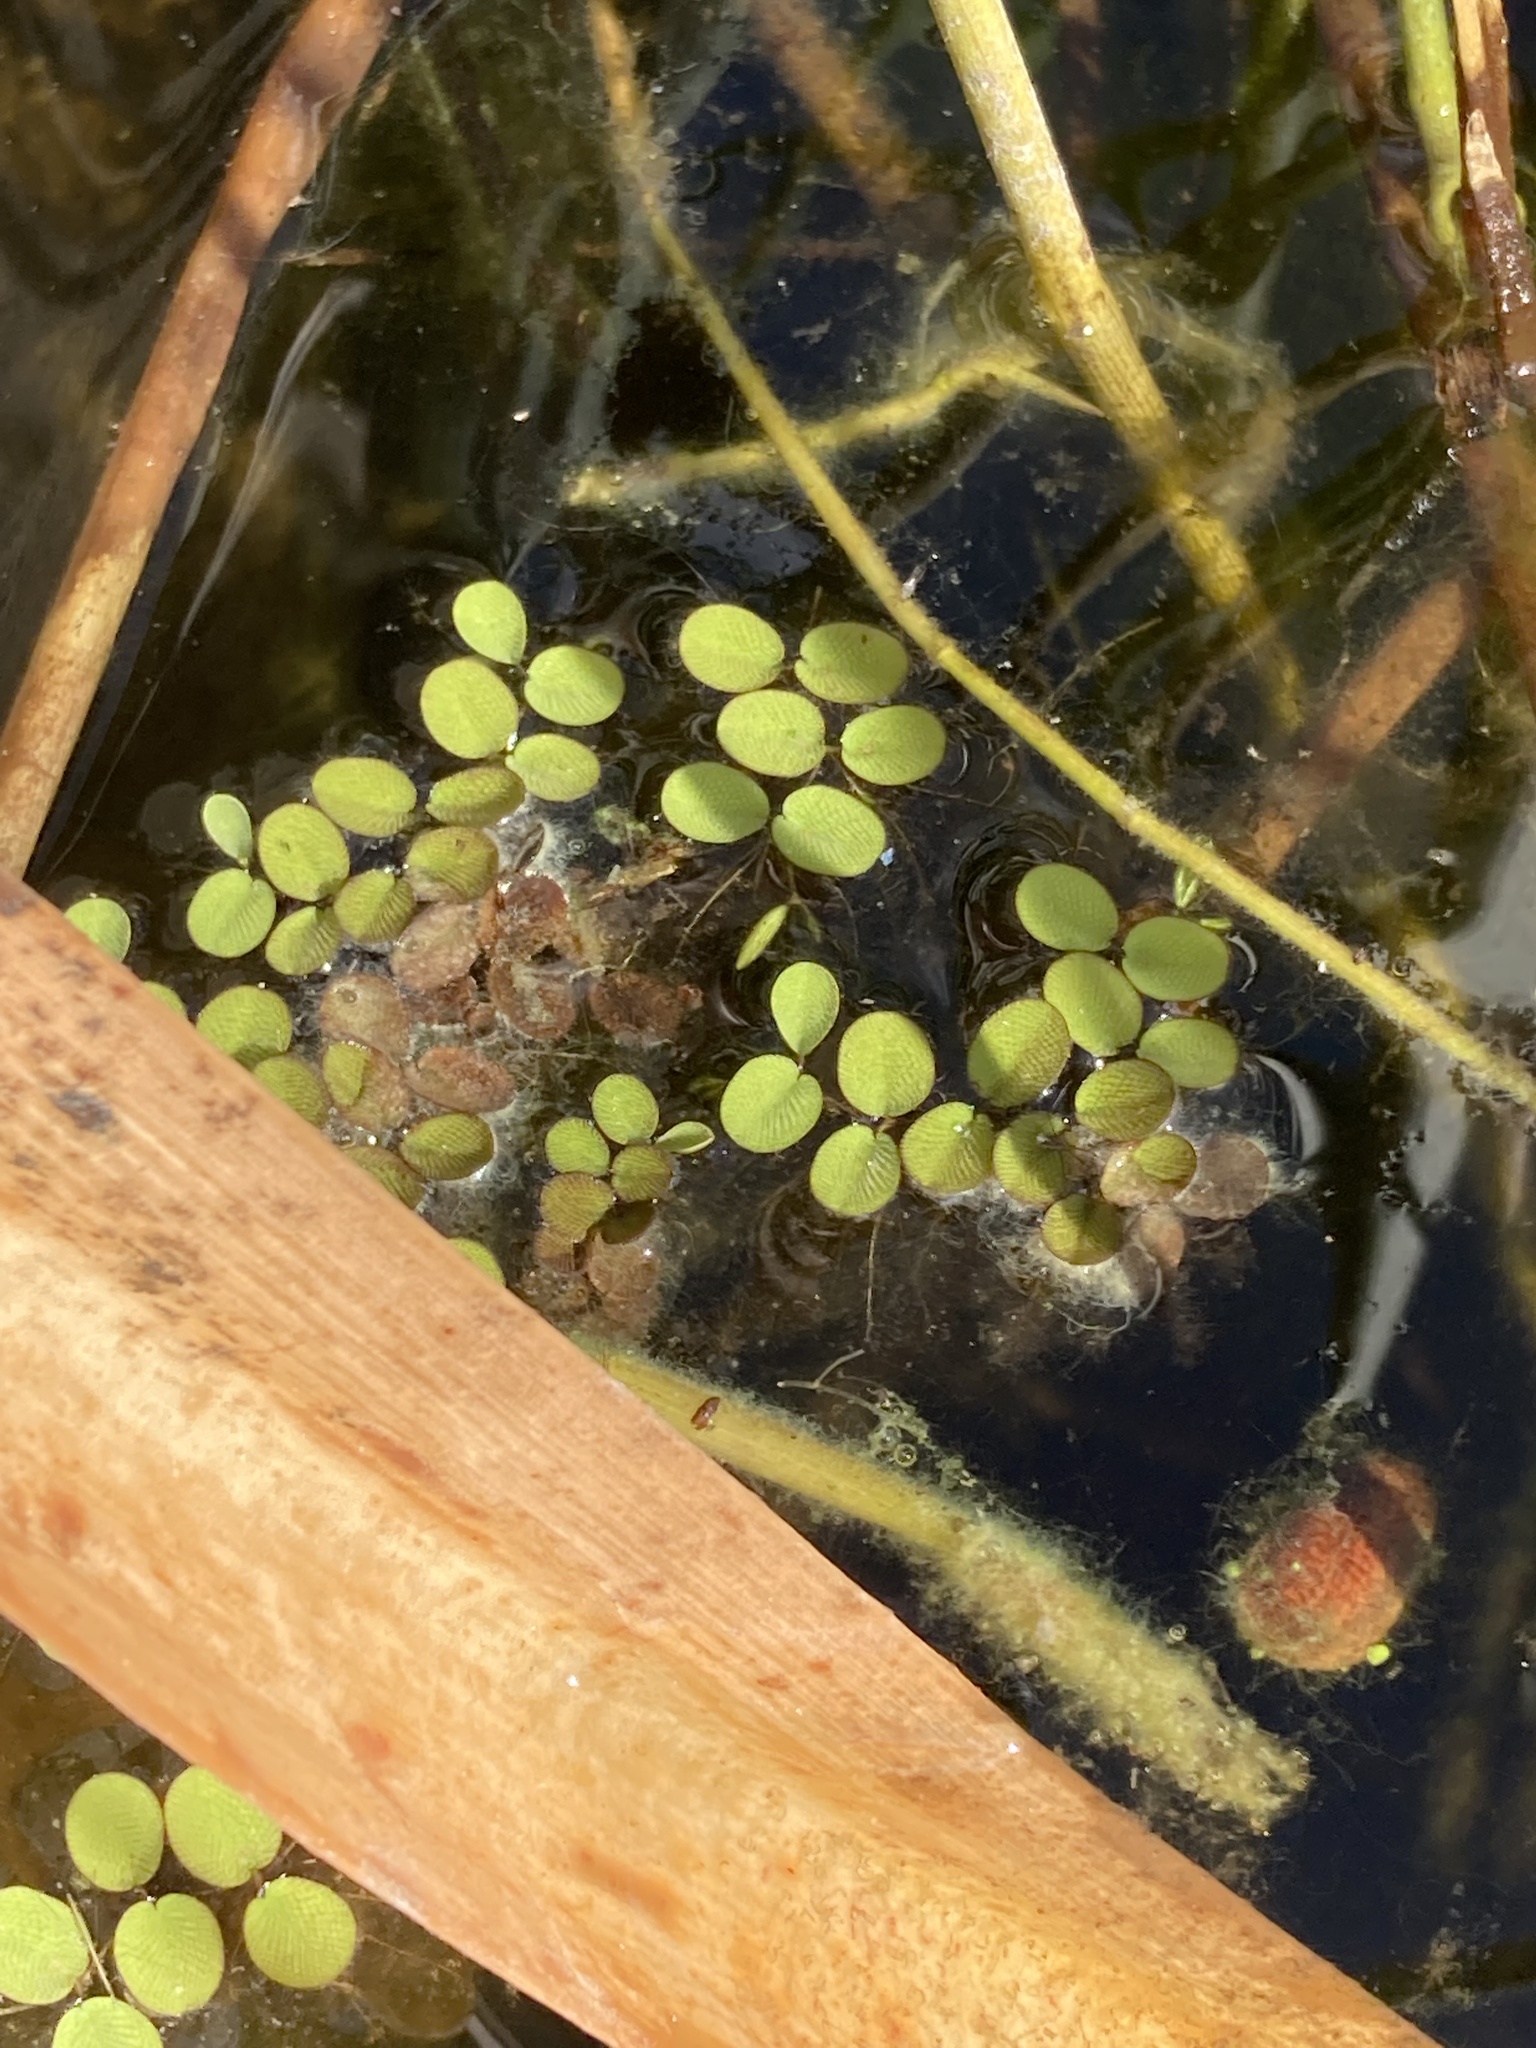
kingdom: Plantae
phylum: Tracheophyta
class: Polypodiopsida
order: Salviniales
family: Salviniaceae
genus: Salvinia
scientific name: Salvinia minima
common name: Water spangles
